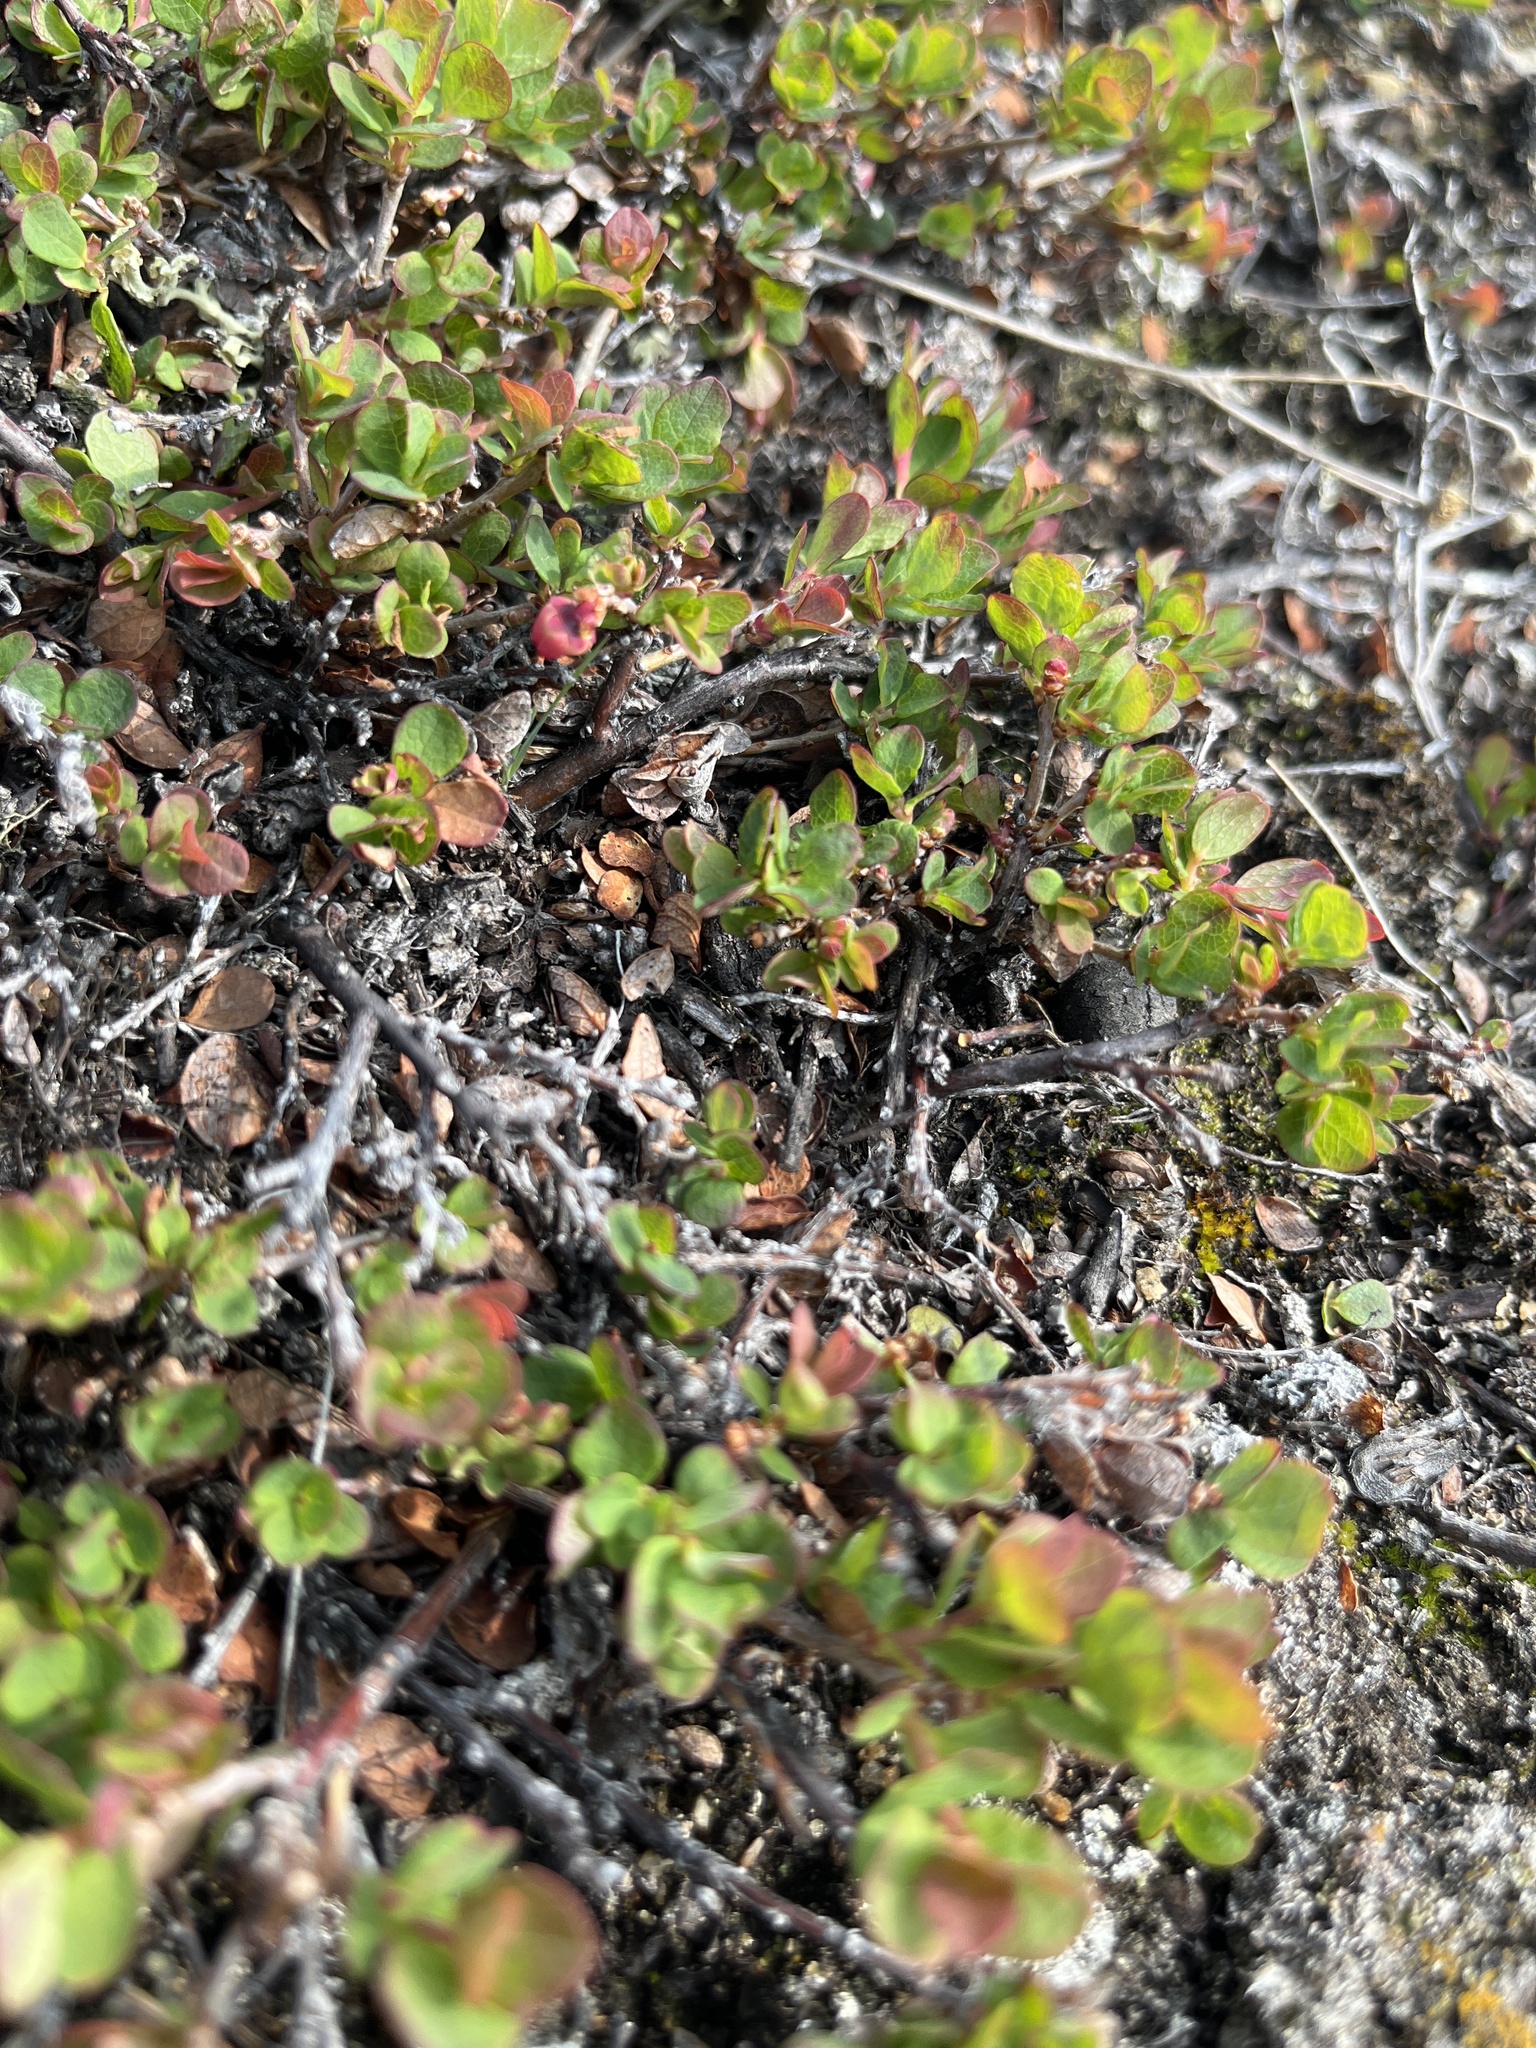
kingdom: Plantae
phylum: Tracheophyta
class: Magnoliopsida
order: Ericales
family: Ericaceae
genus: Vaccinium
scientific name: Vaccinium uliginosum
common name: Bog bilberry
